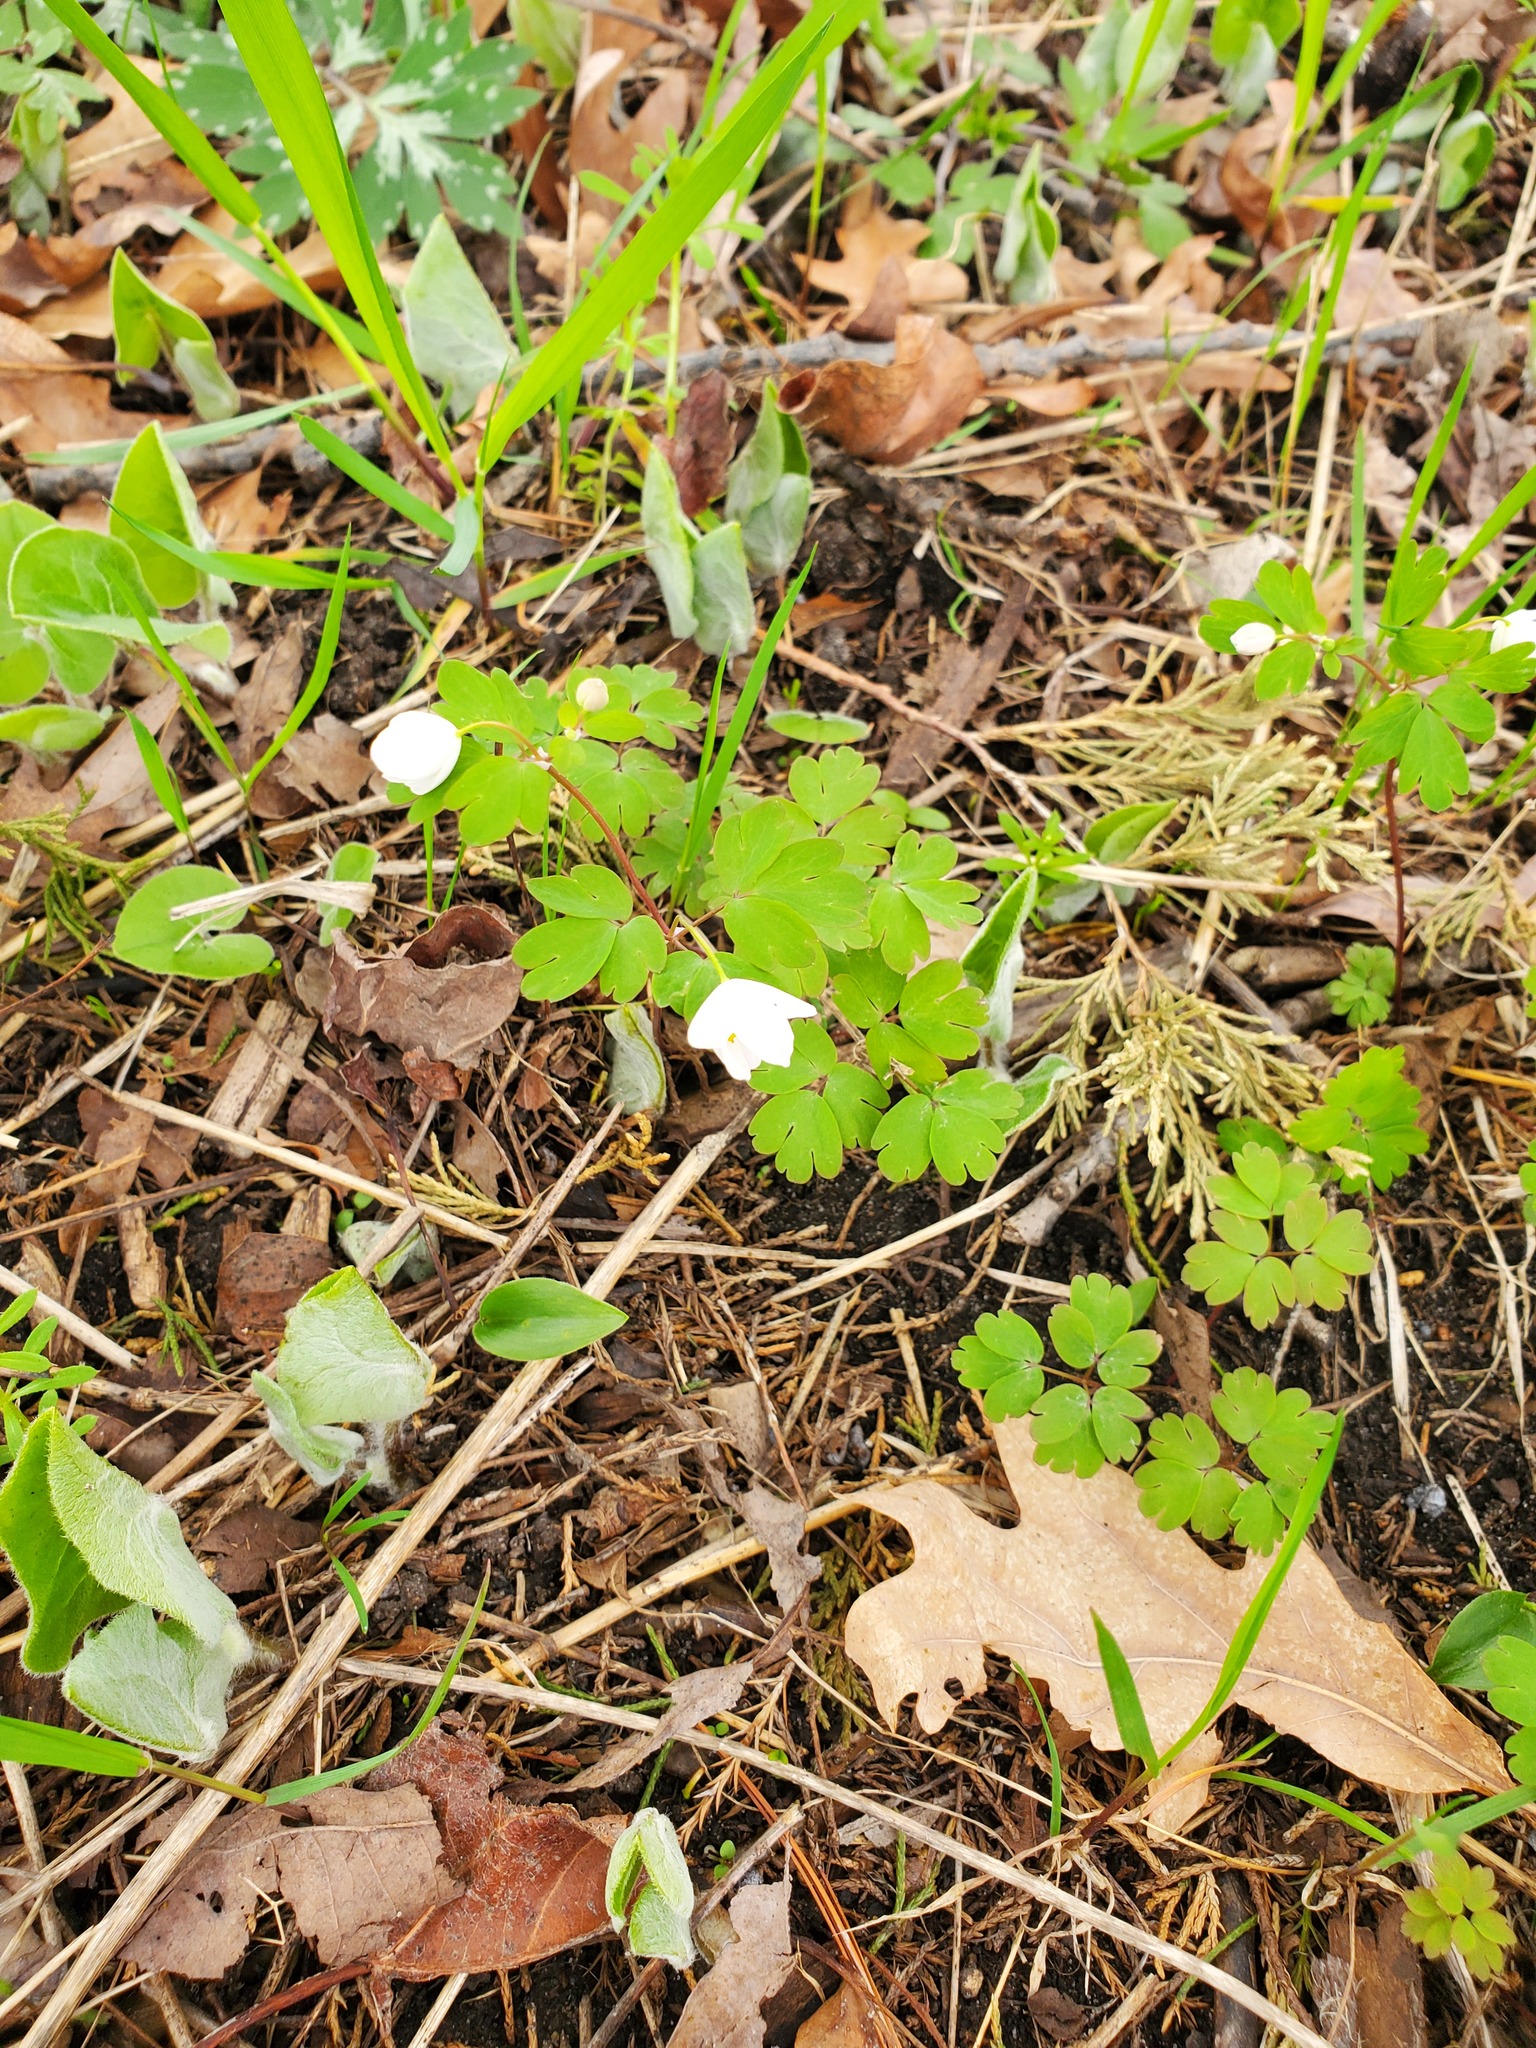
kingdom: Plantae
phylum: Tracheophyta
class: Magnoliopsida
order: Ranunculales
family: Ranunculaceae
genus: Enemion
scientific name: Enemion biternatum
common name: Eastern false rue-anemone
